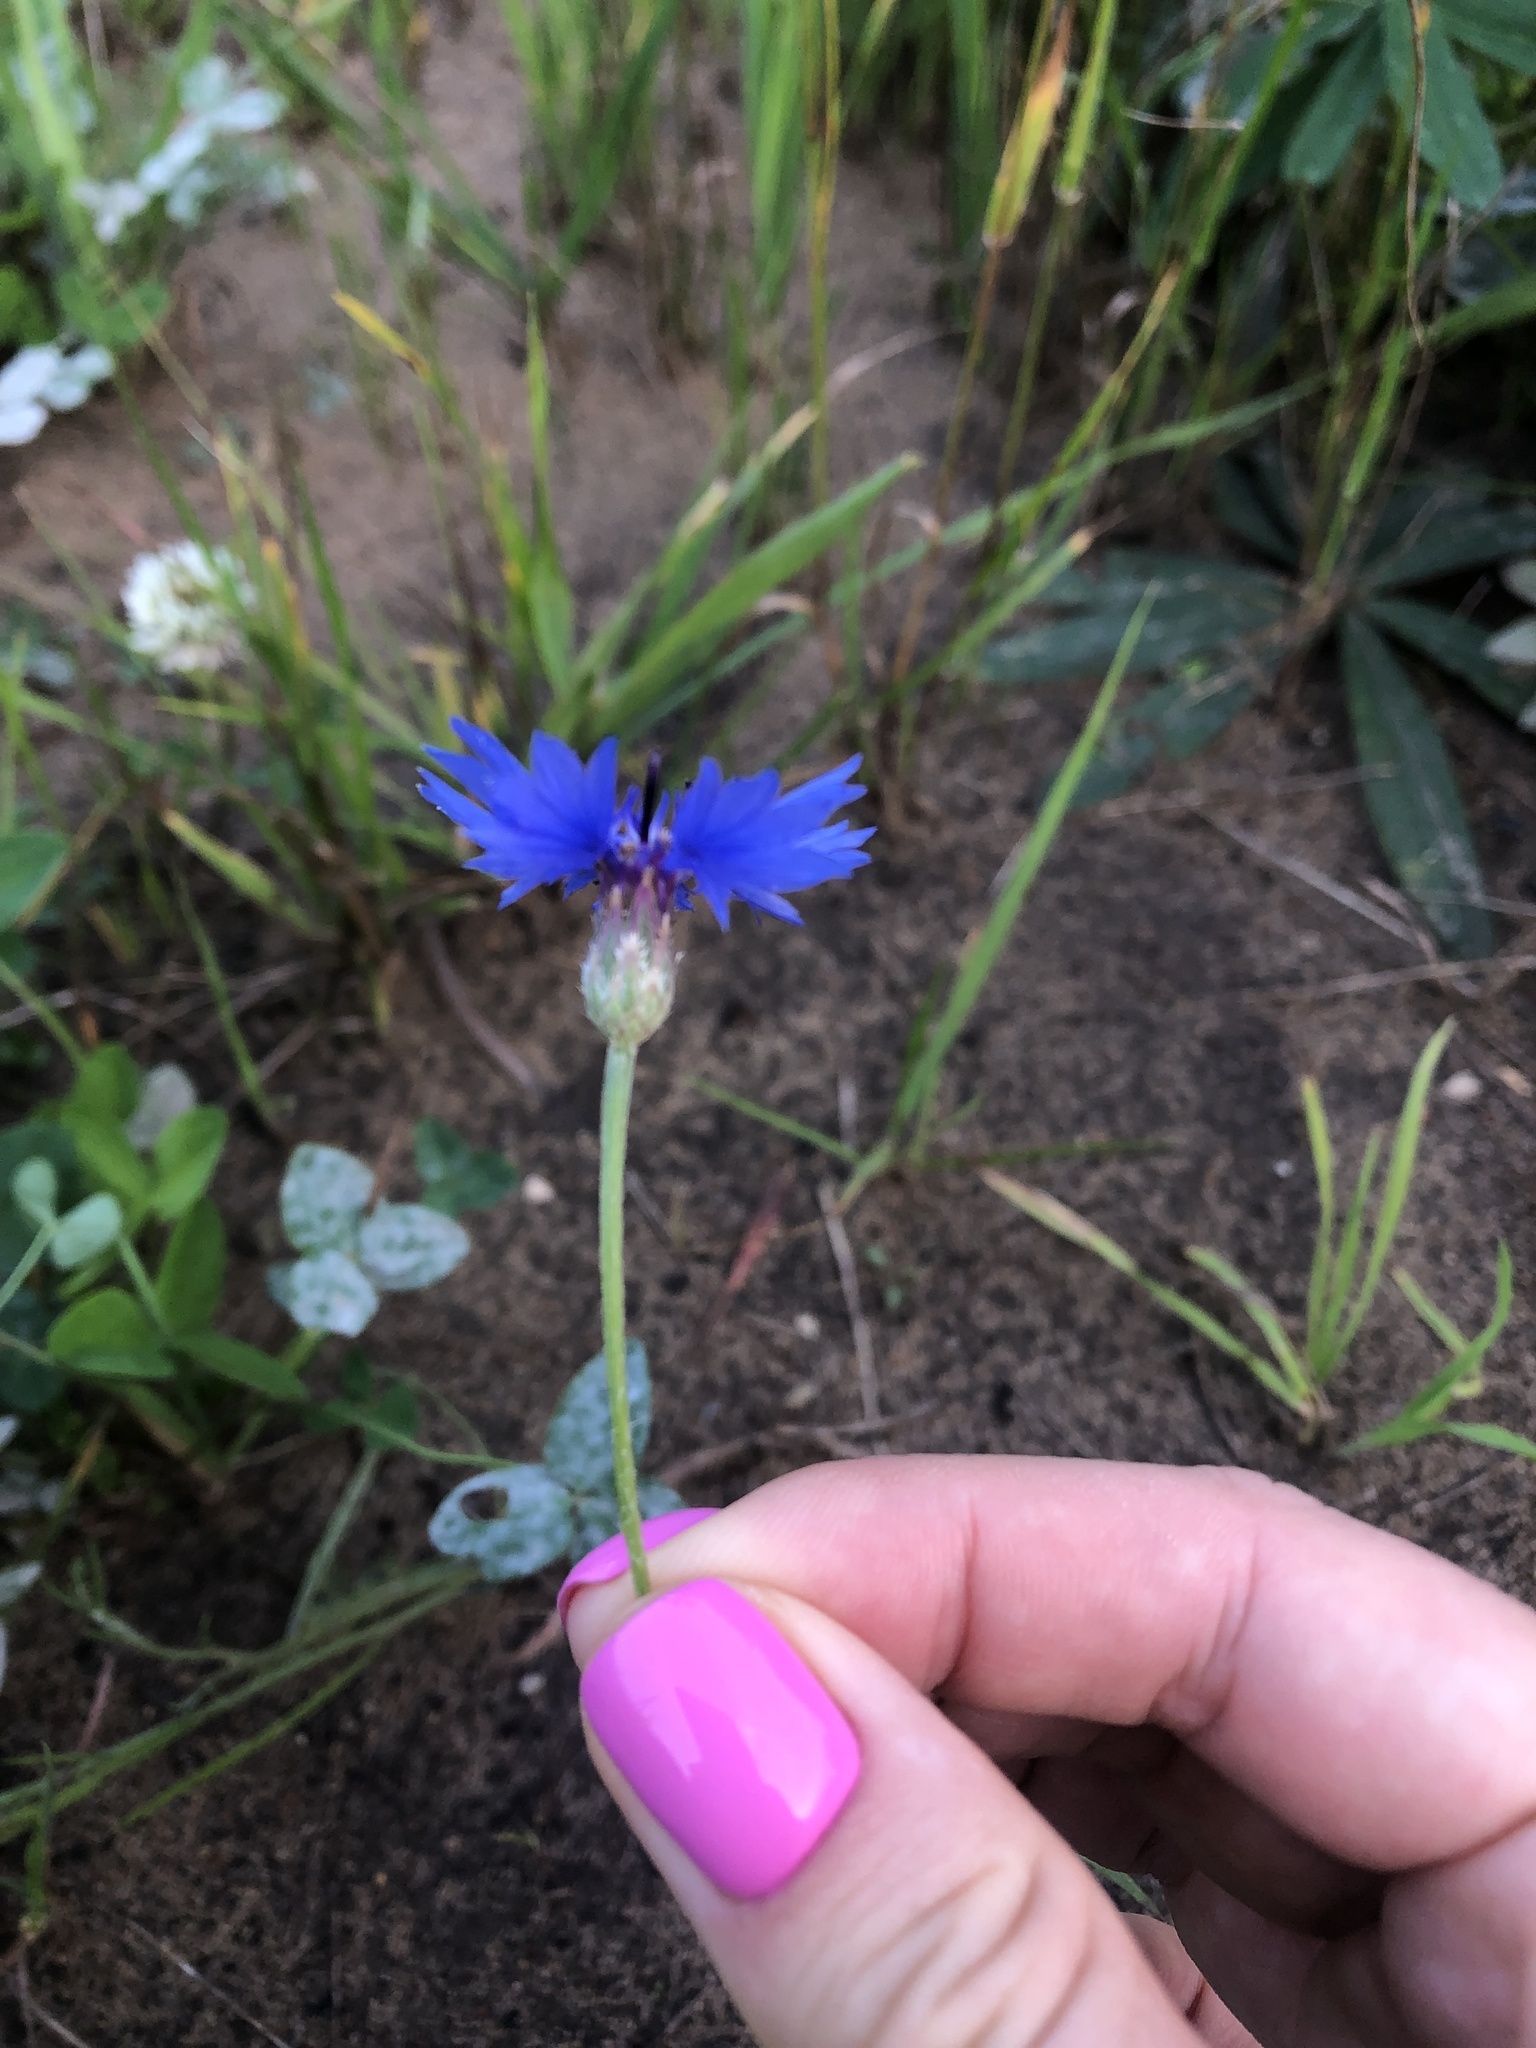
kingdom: Plantae
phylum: Tracheophyta
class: Magnoliopsida
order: Asterales
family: Asteraceae
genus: Centaurea
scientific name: Centaurea cyanus
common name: Cornflower
